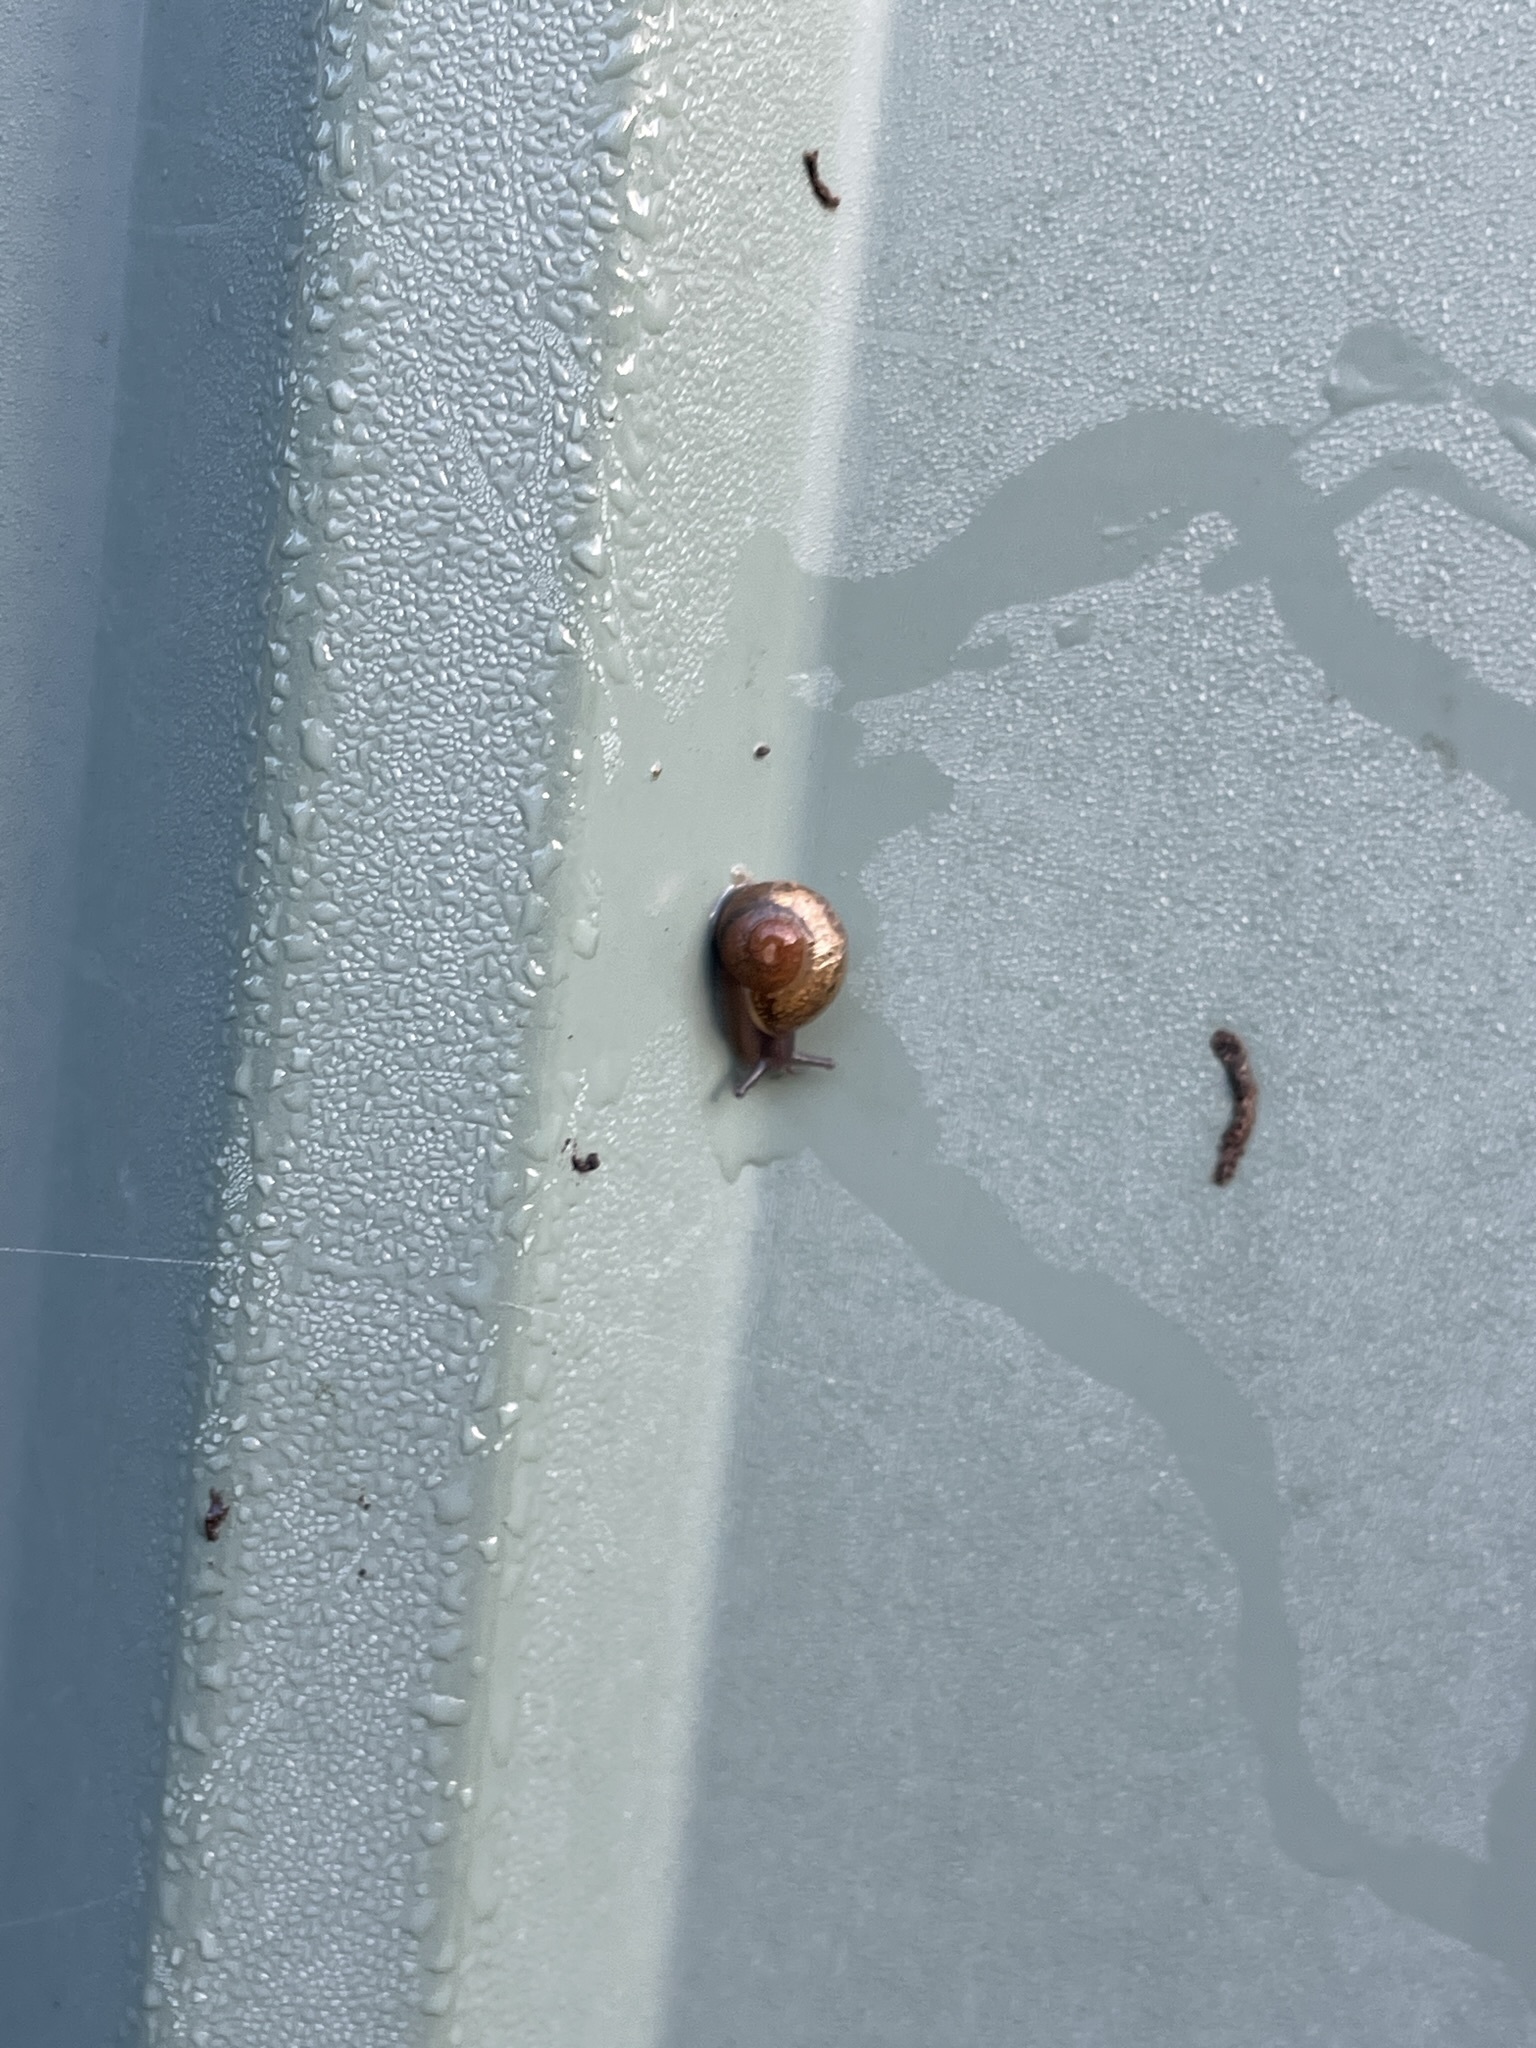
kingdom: Animalia
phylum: Mollusca
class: Gastropoda
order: Stylommatophora
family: Helicidae
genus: Cornu
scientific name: Cornu aspersum
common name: Brown garden snail
